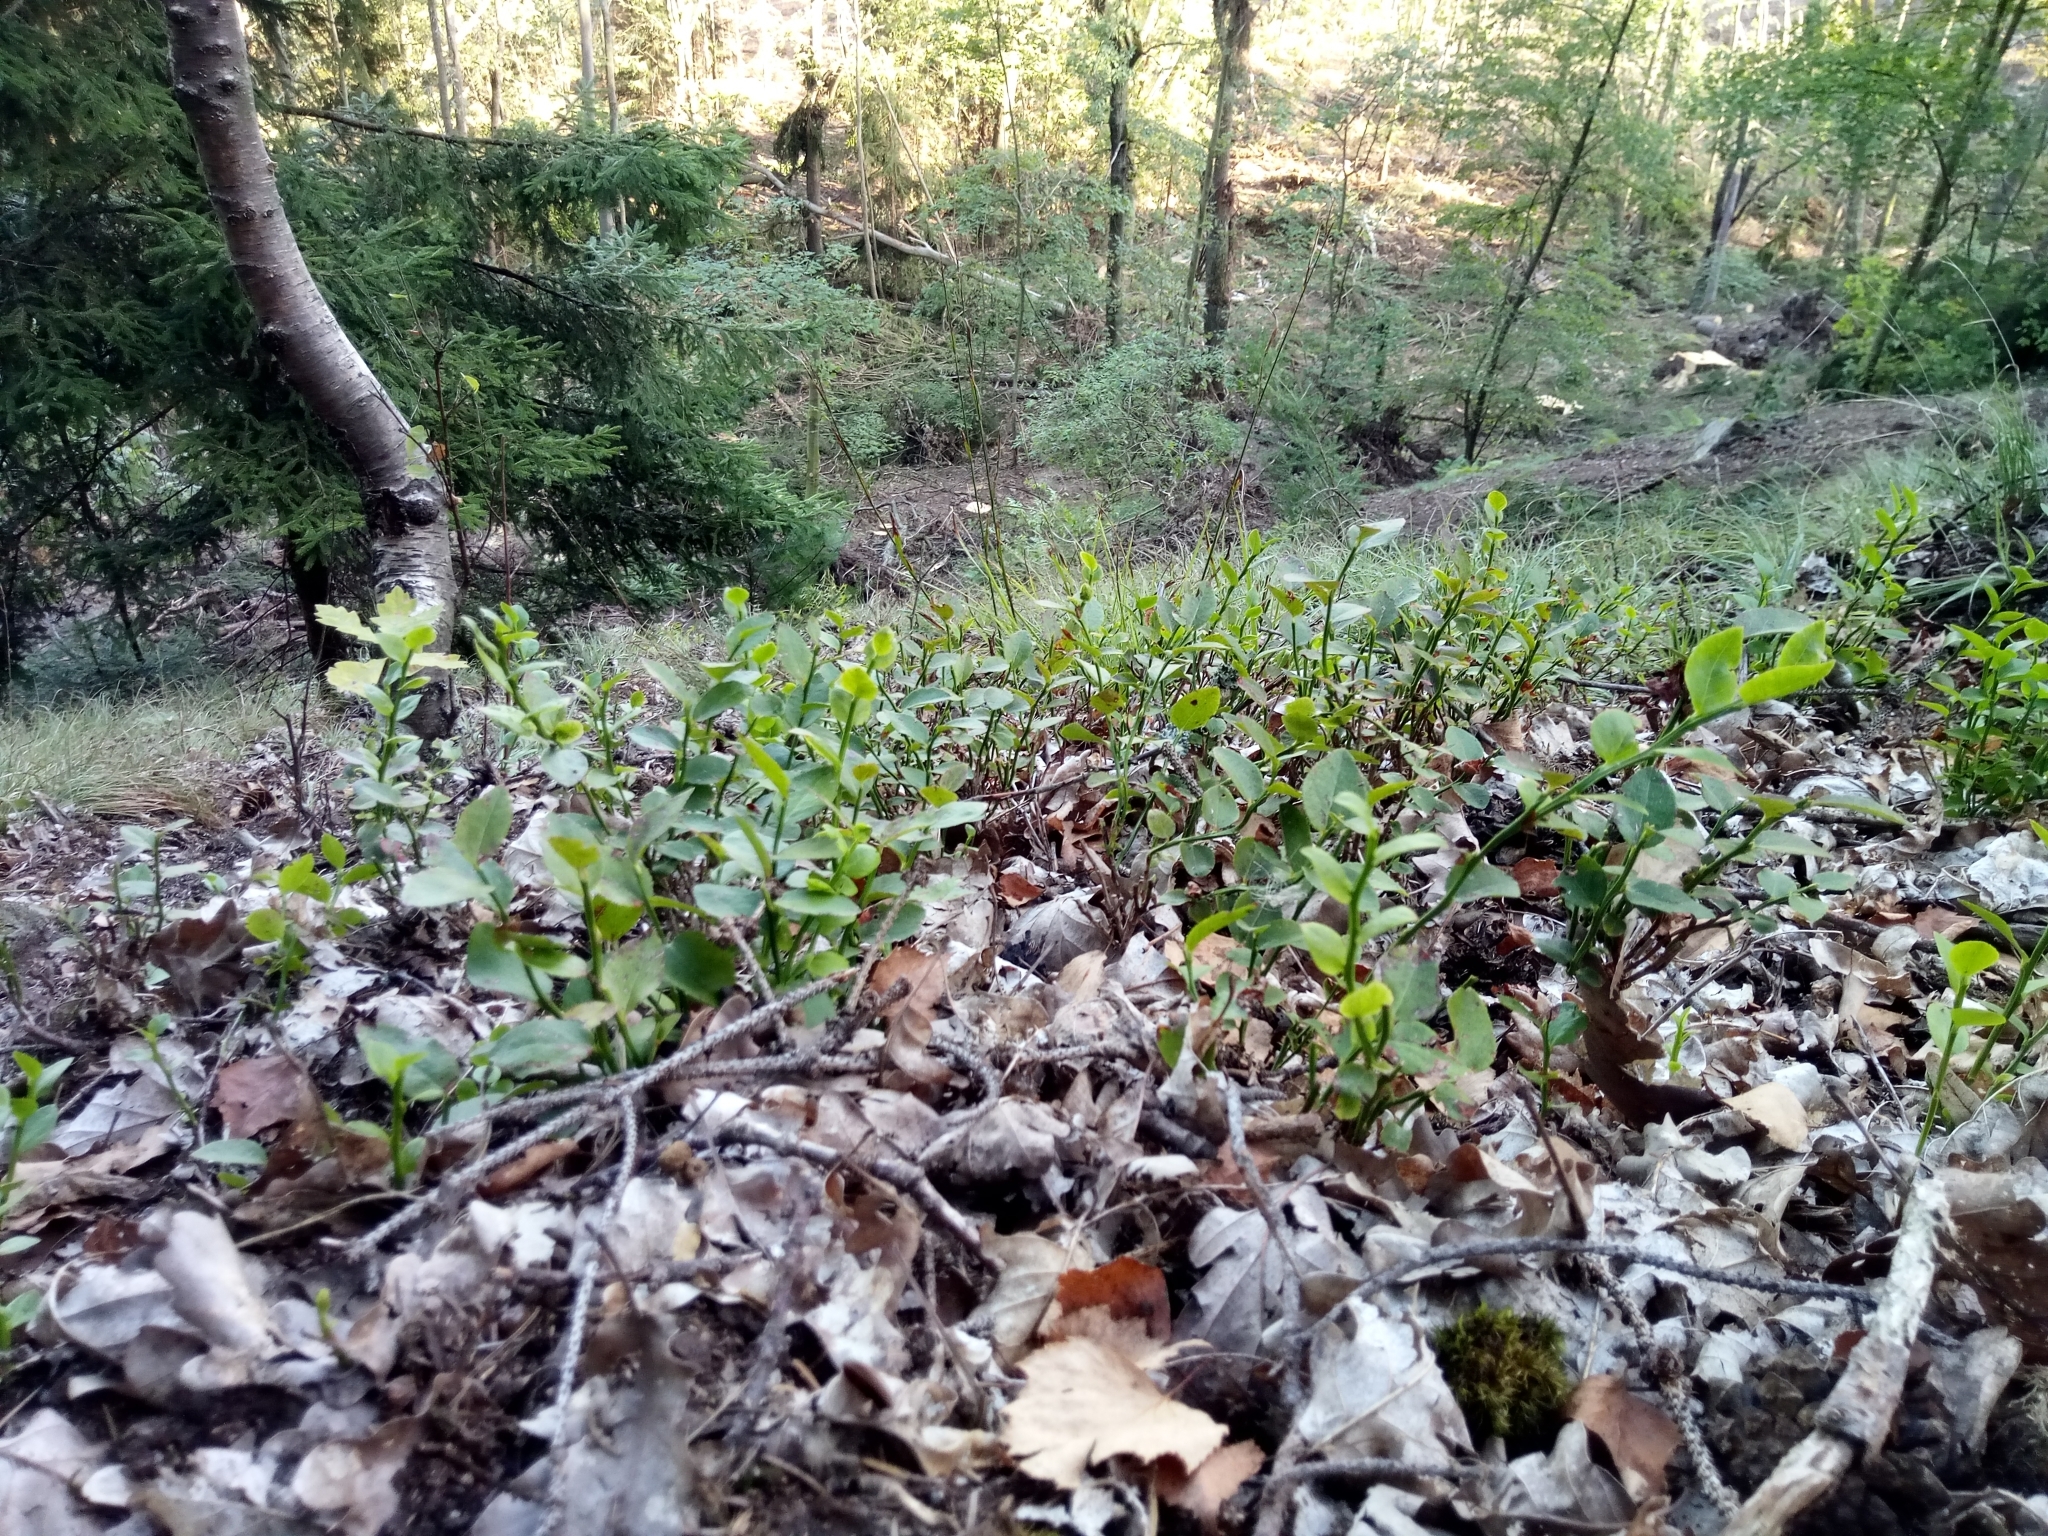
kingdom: Plantae
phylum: Tracheophyta
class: Magnoliopsida
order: Ericales
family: Ericaceae
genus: Vaccinium
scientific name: Vaccinium myrtillus
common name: Bilberry
